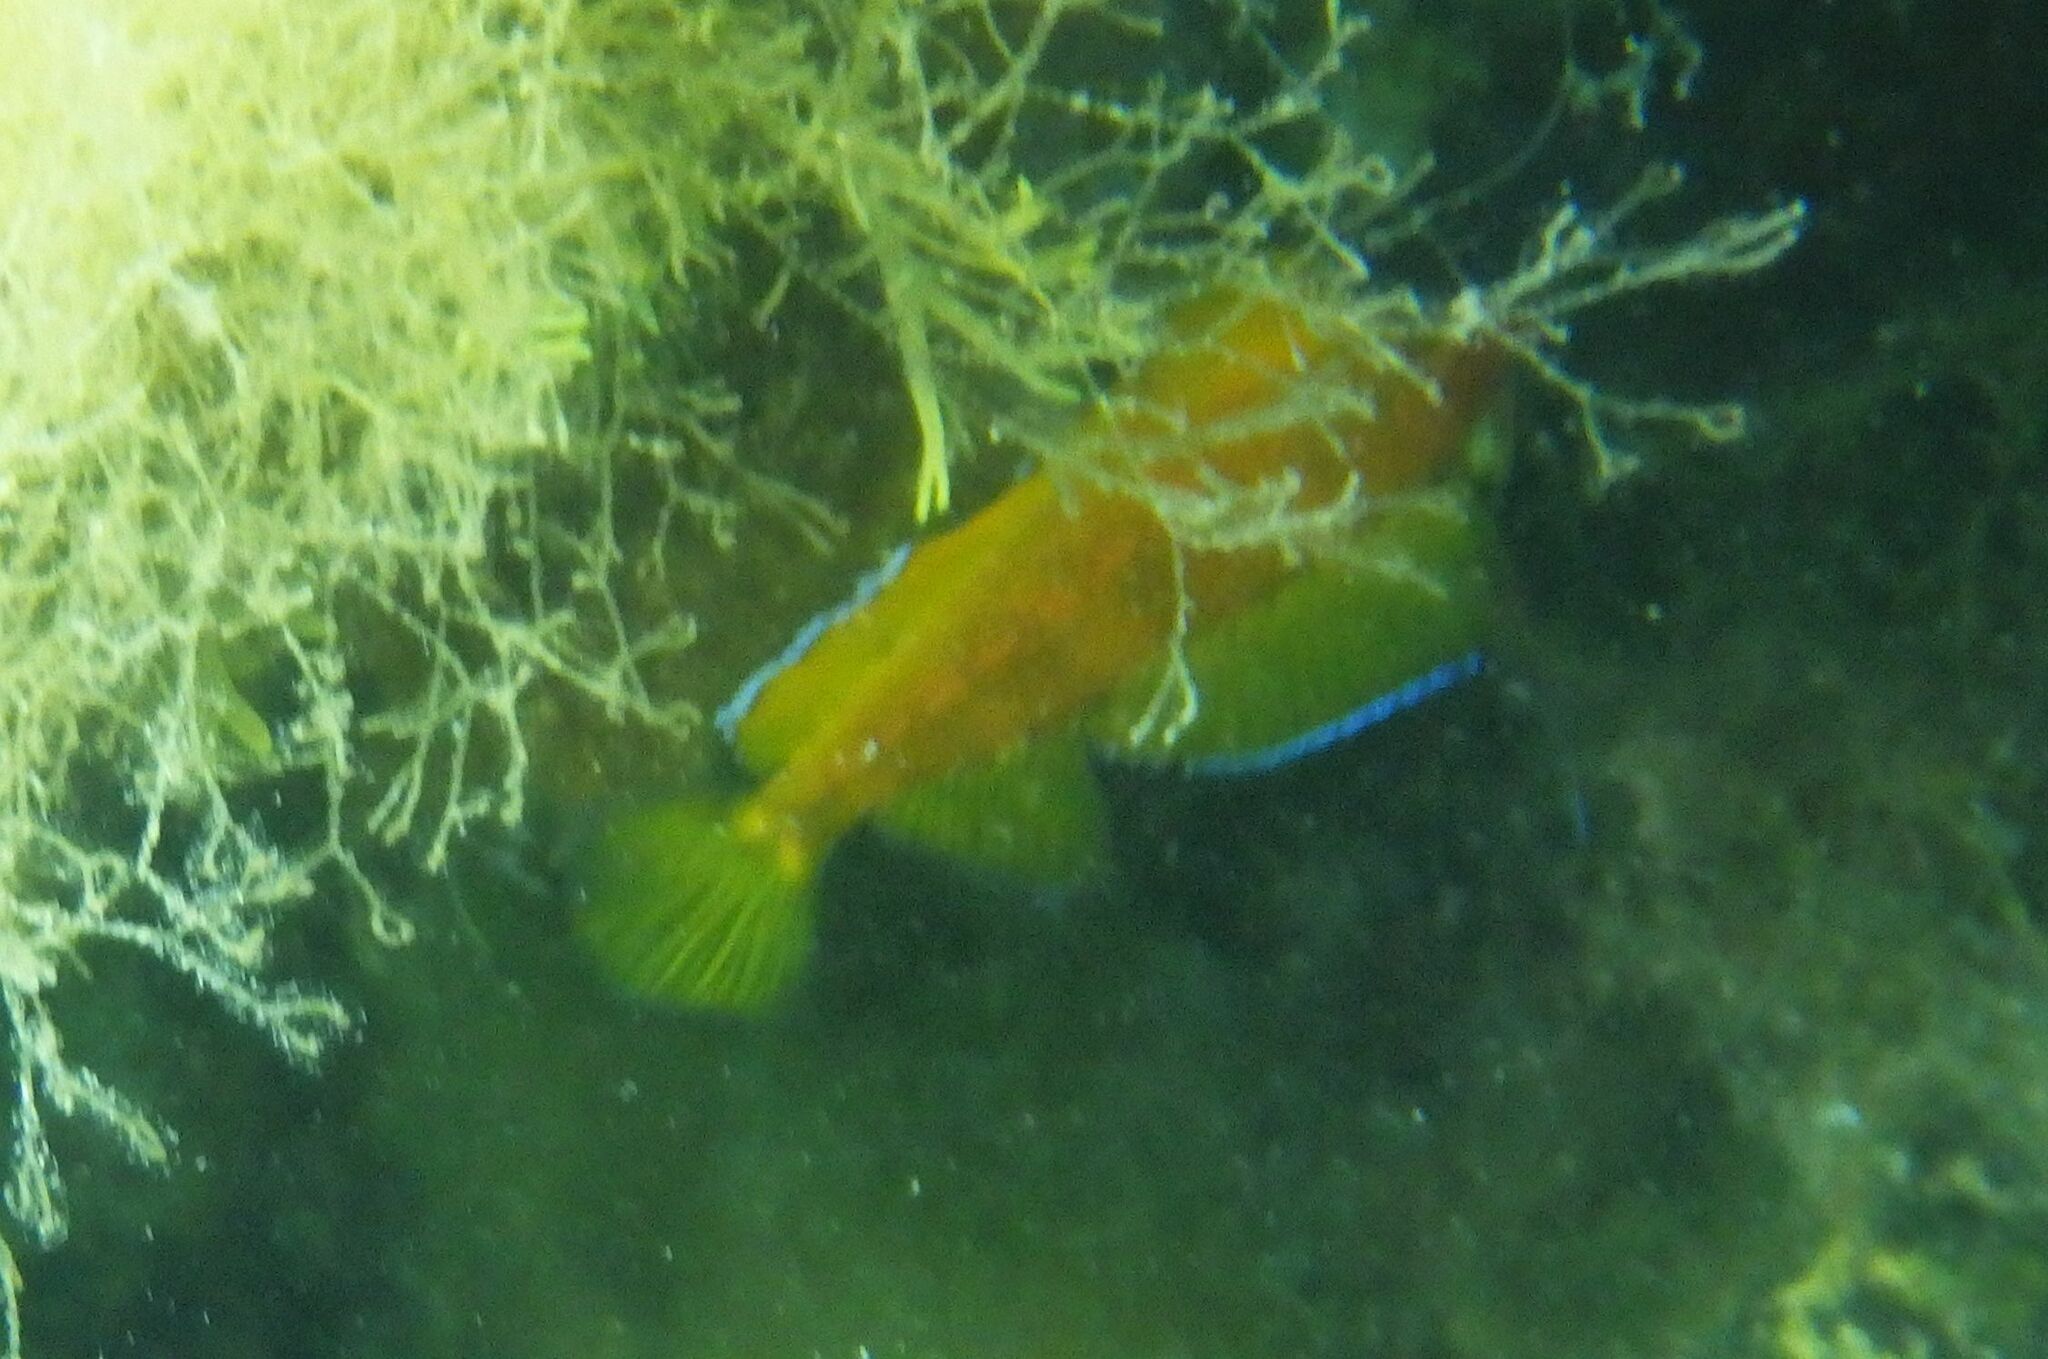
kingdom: Animalia
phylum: Chordata
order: Perciformes
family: Tripterygiidae
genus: Tripterygion
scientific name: Tripterygion delaisi
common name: Black-face blenny
